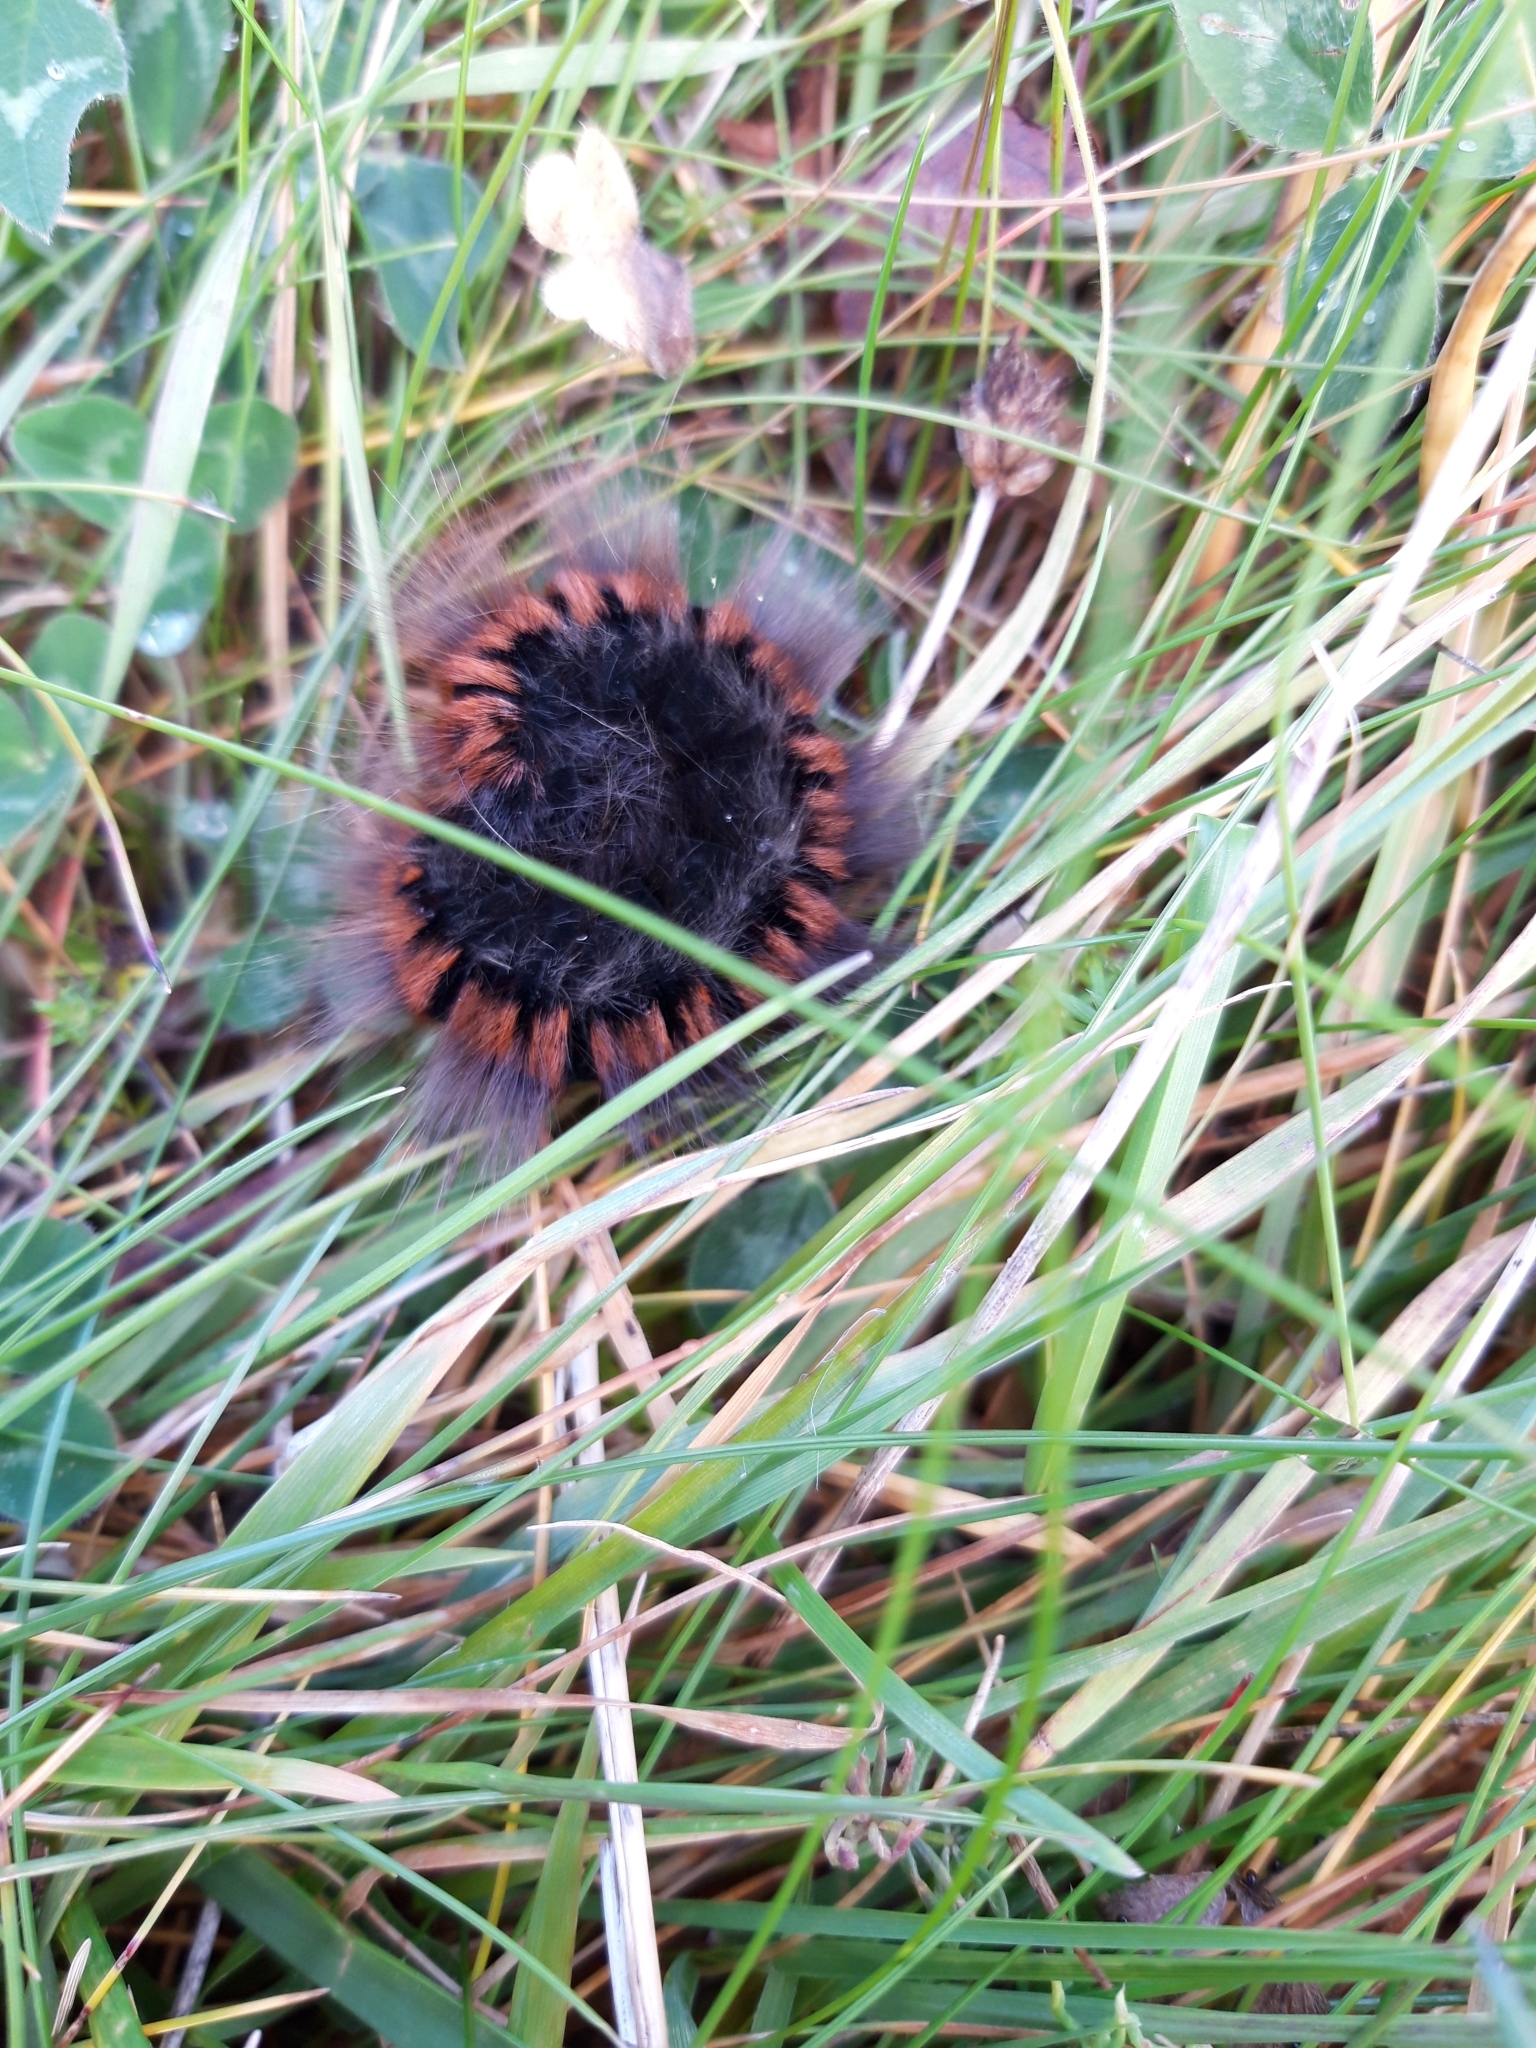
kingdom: Animalia
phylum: Arthropoda
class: Insecta
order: Lepidoptera
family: Lasiocampidae
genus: Macrothylacia
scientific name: Macrothylacia rubi
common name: Fox moth
